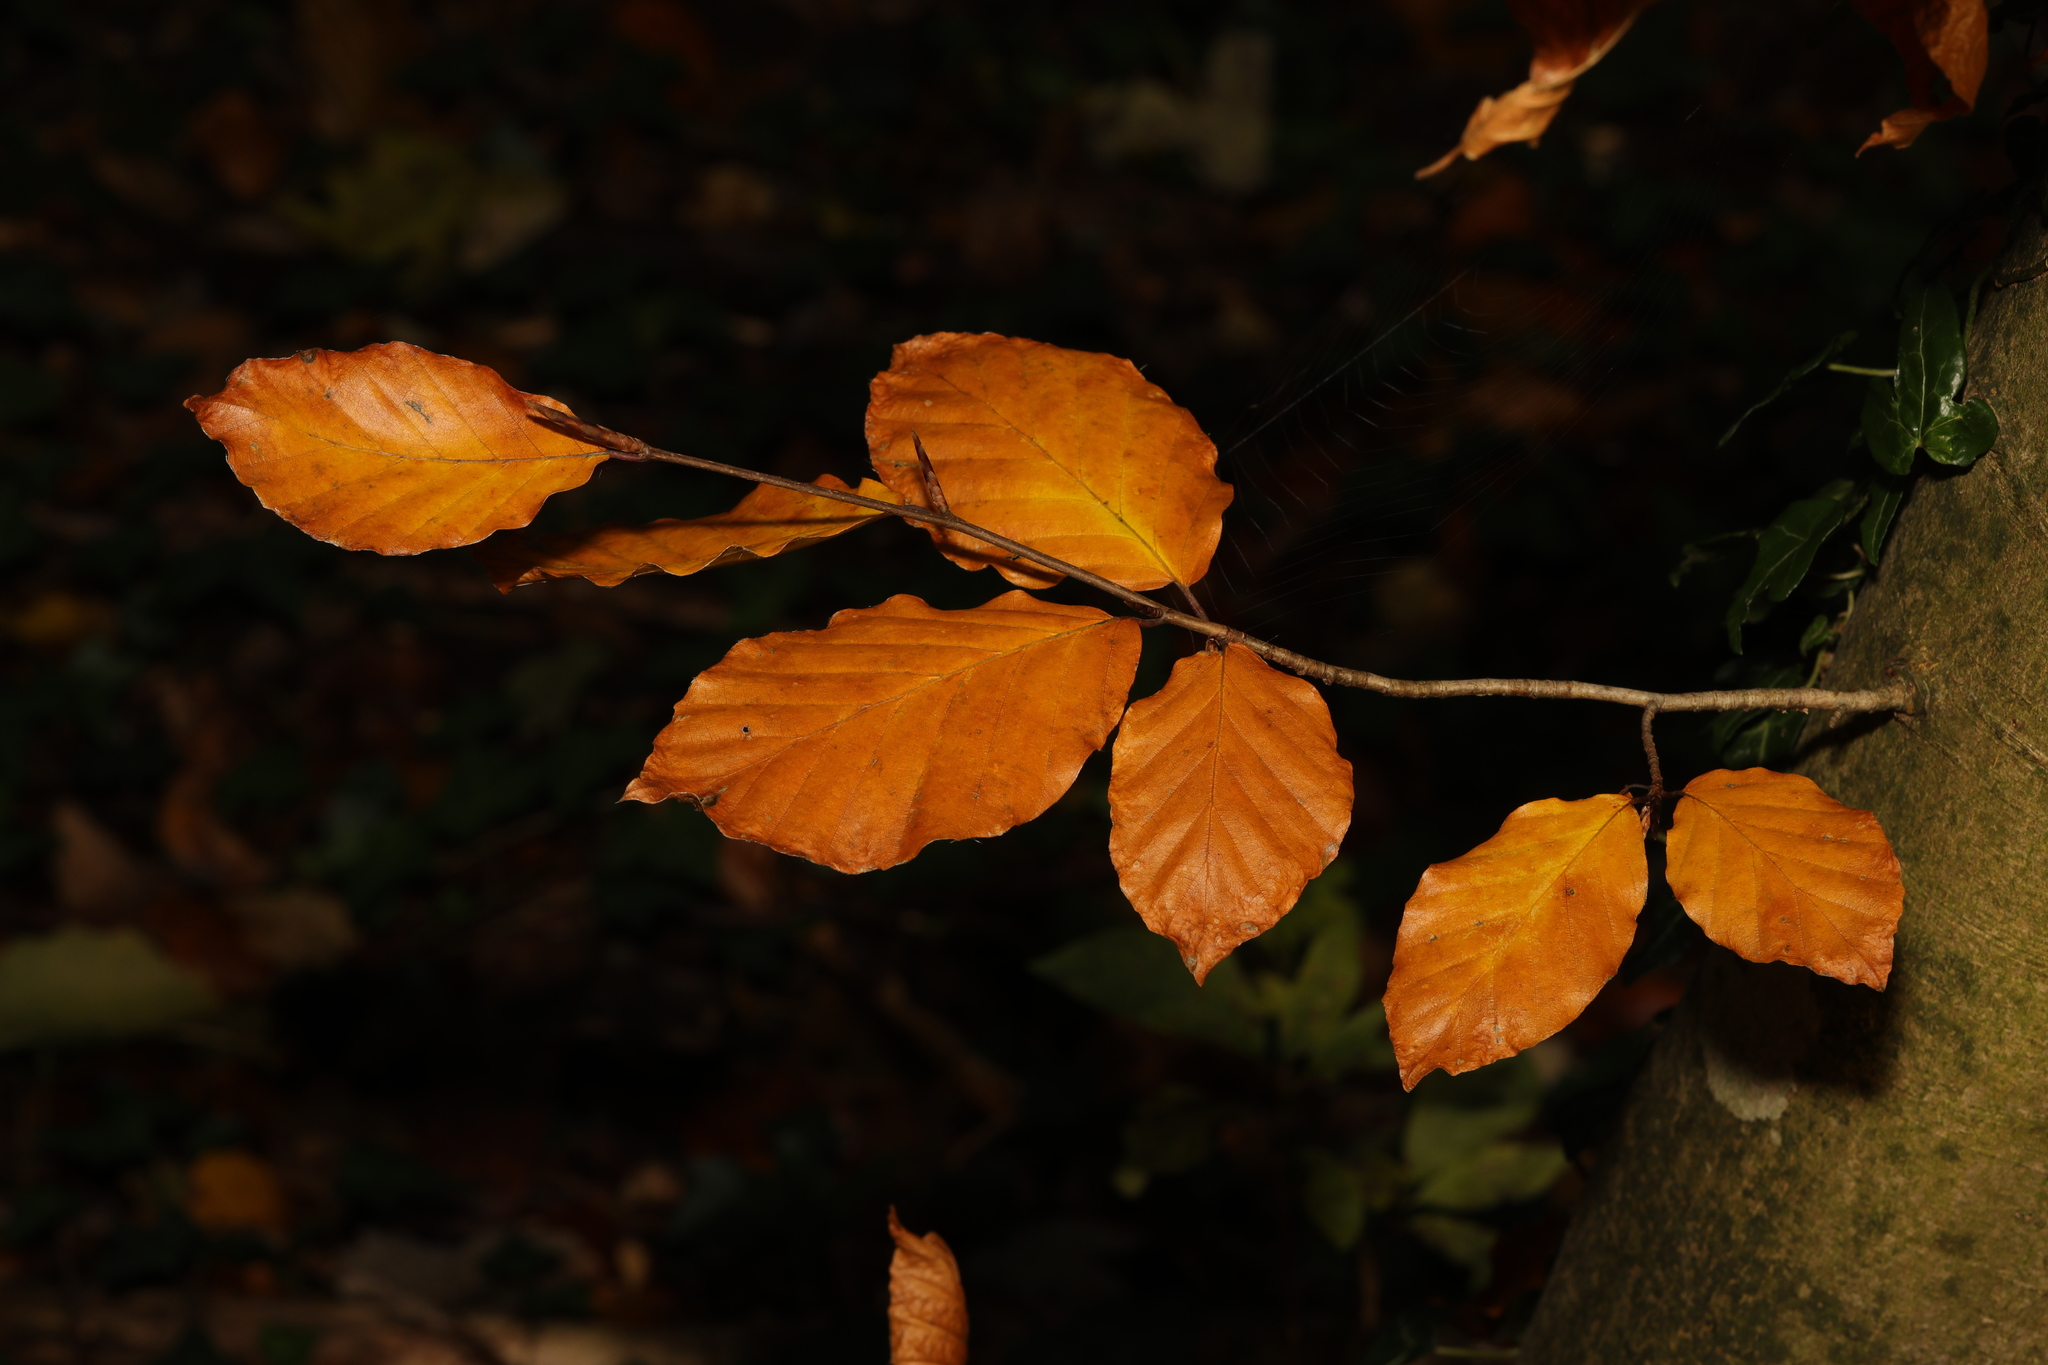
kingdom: Plantae
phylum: Tracheophyta
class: Magnoliopsida
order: Fagales
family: Fagaceae
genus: Fagus
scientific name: Fagus sylvatica
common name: Beech
